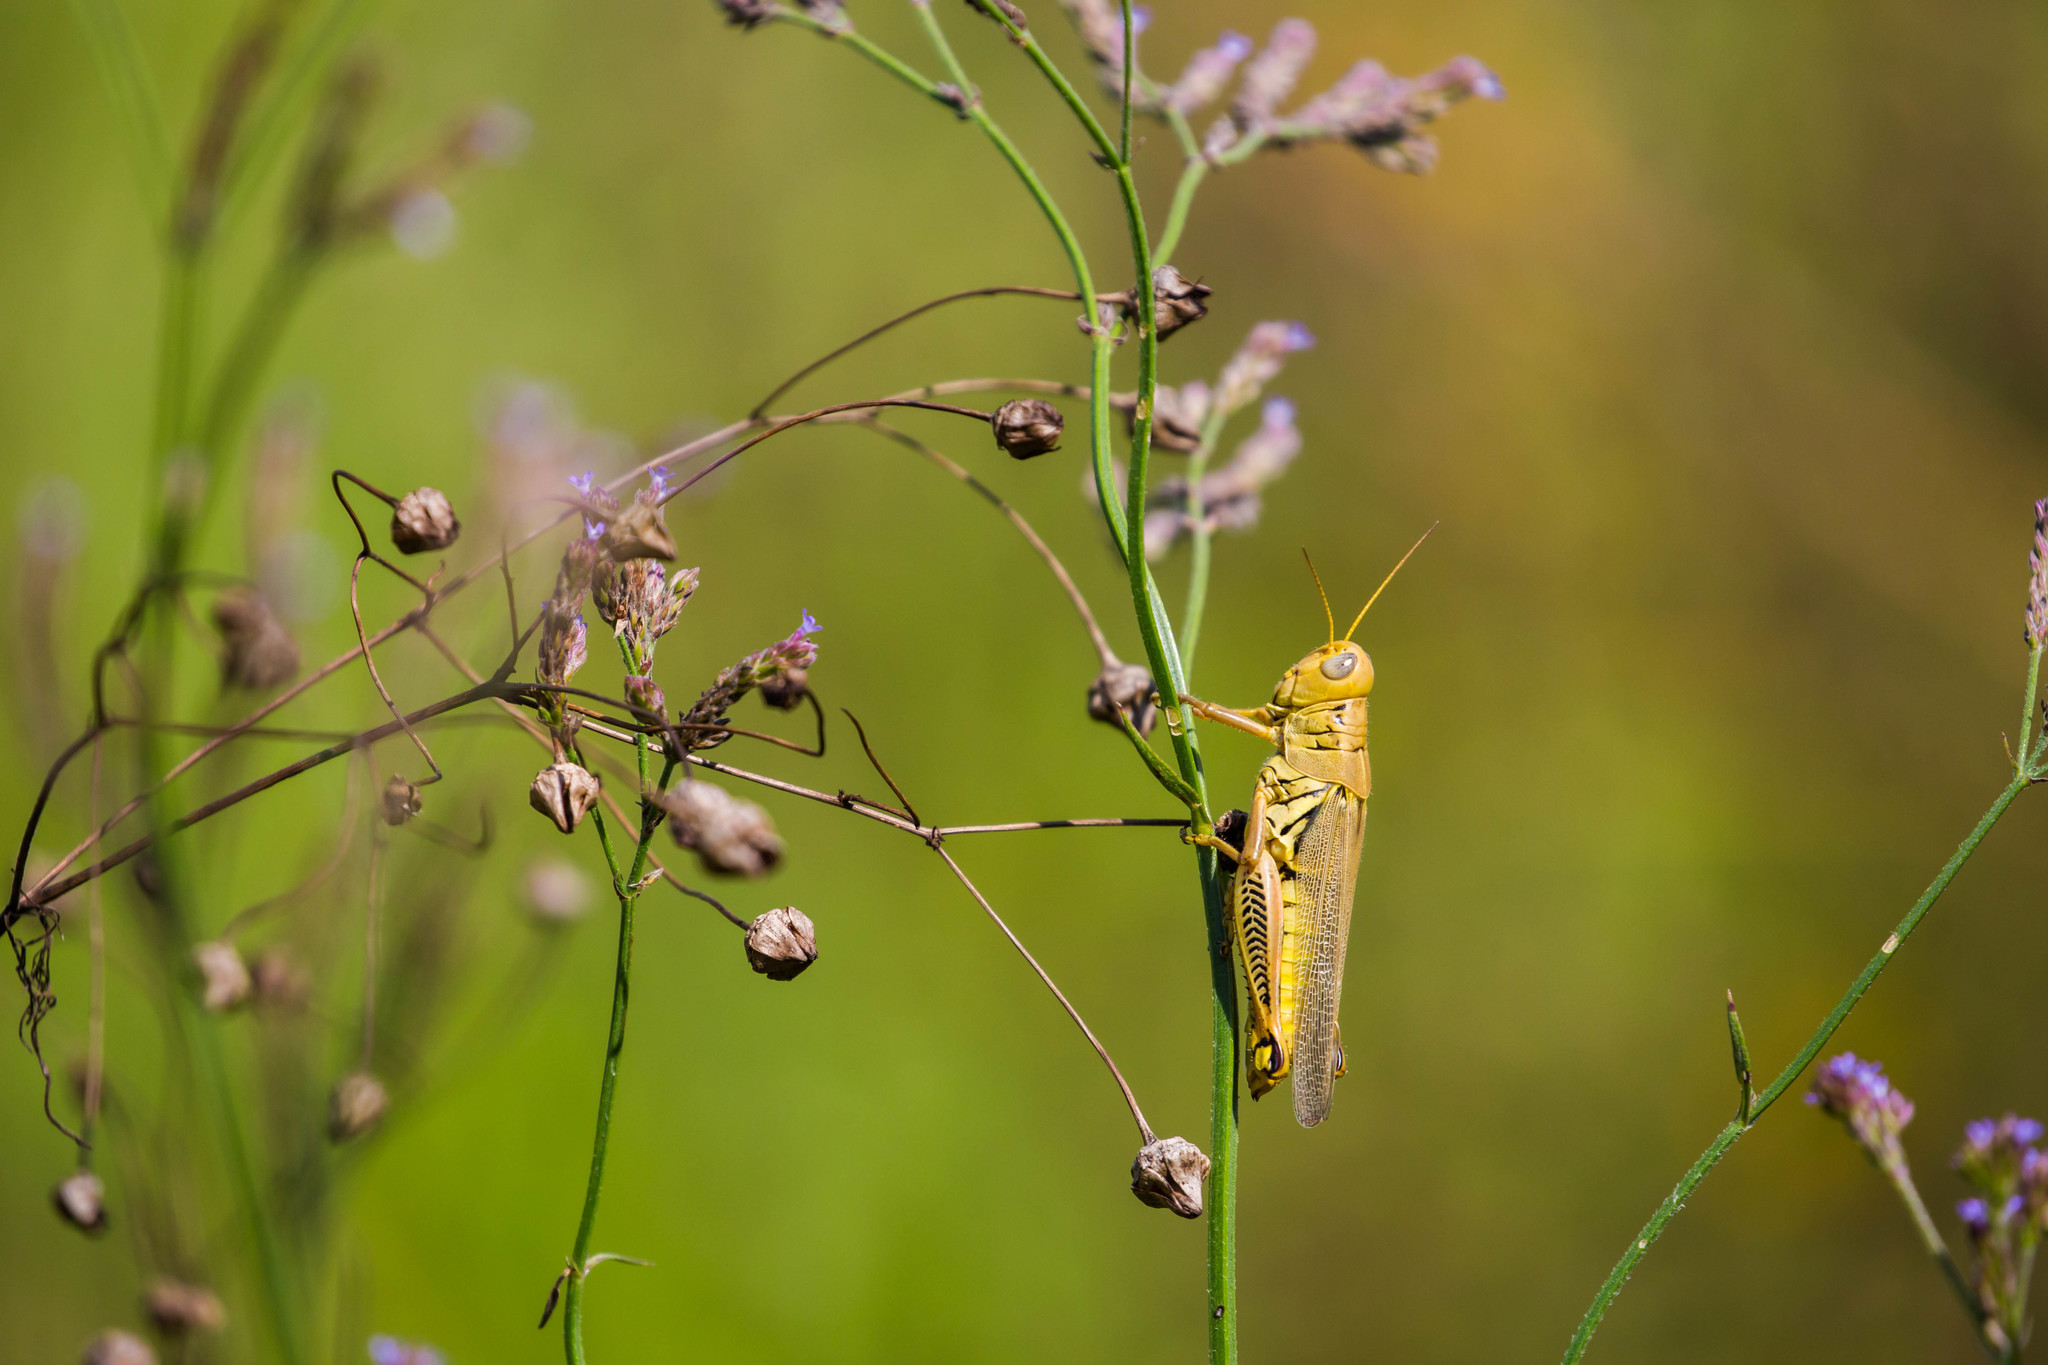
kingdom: Animalia
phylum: Arthropoda
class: Insecta
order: Orthoptera
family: Acrididae
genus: Melanoplus
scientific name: Melanoplus differentialis
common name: Differential grasshopper
